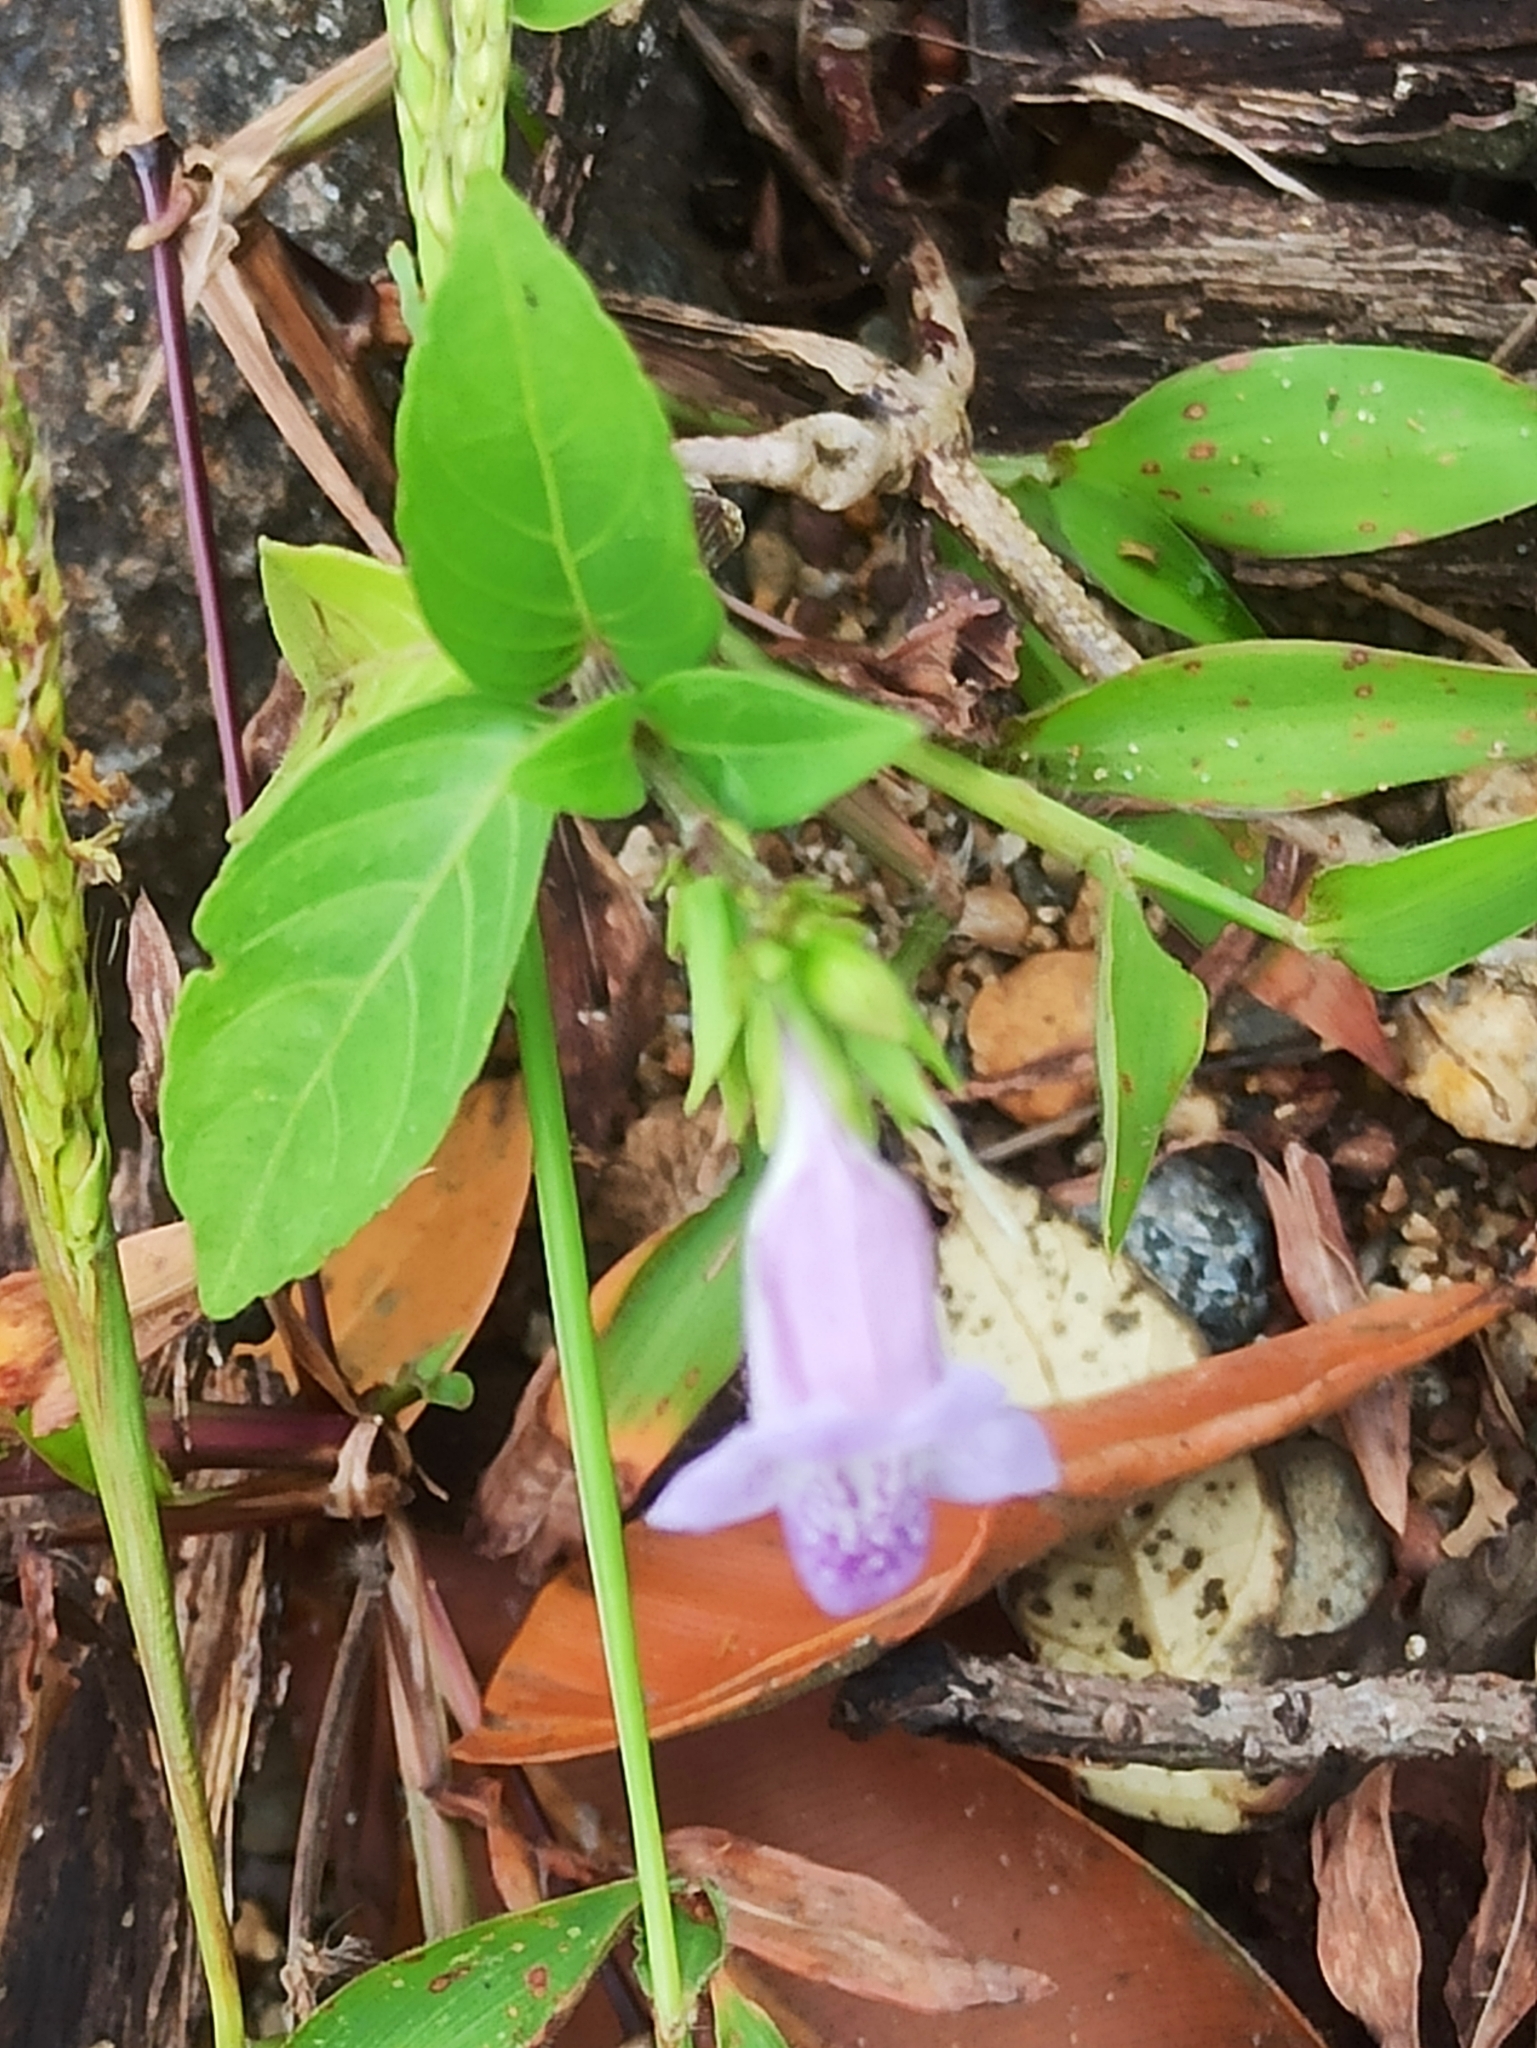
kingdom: Plantae
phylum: Tracheophyta
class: Magnoliopsida
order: Lamiales
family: Acanthaceae
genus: Asystasia
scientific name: Asystasia dalzelliana
